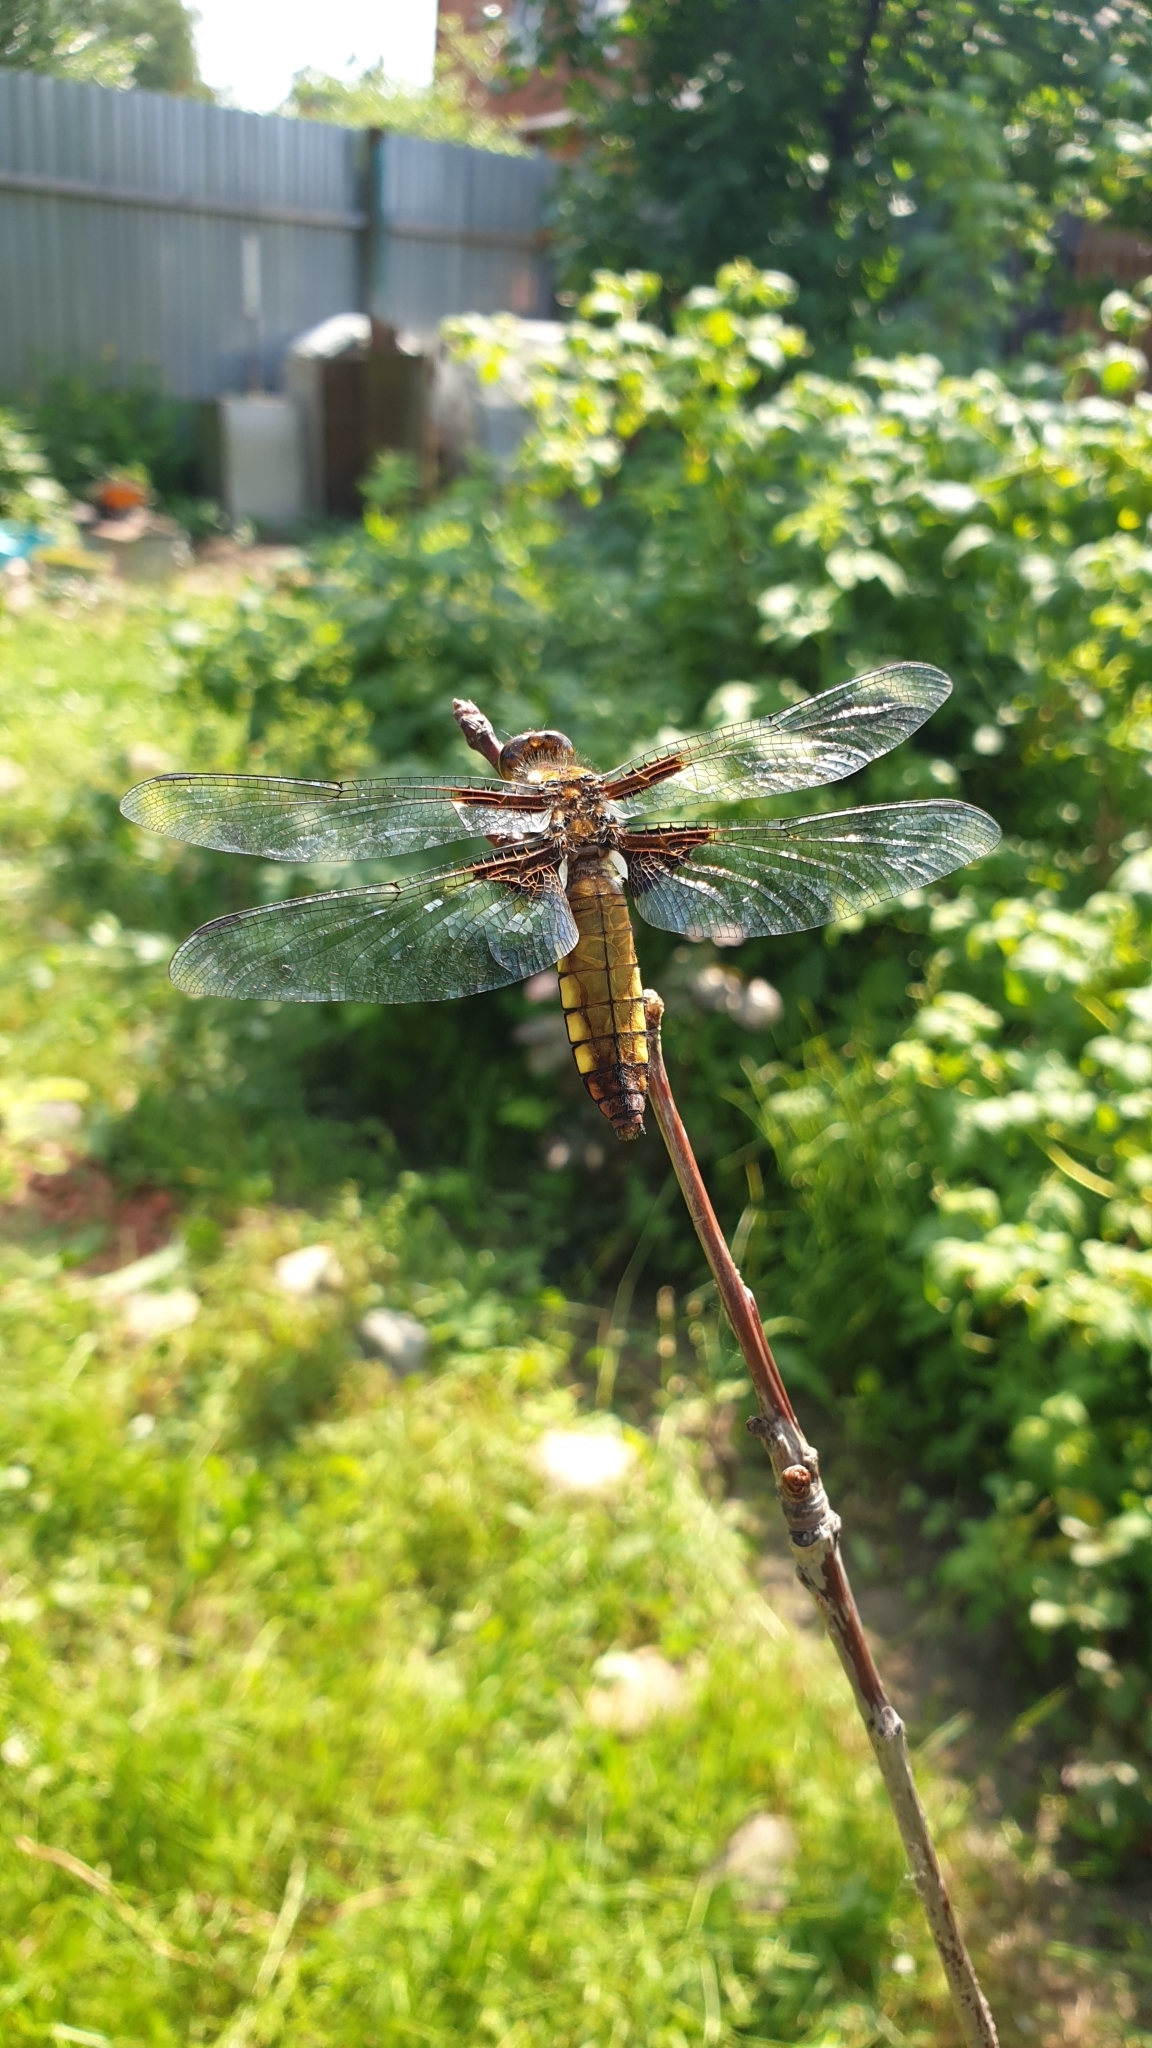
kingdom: Animalia
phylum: Arthropoda
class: Insecta
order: Odonata
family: Libellulidae
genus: Libellula
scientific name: Libellula depressa
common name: Broad-bodied chaser
